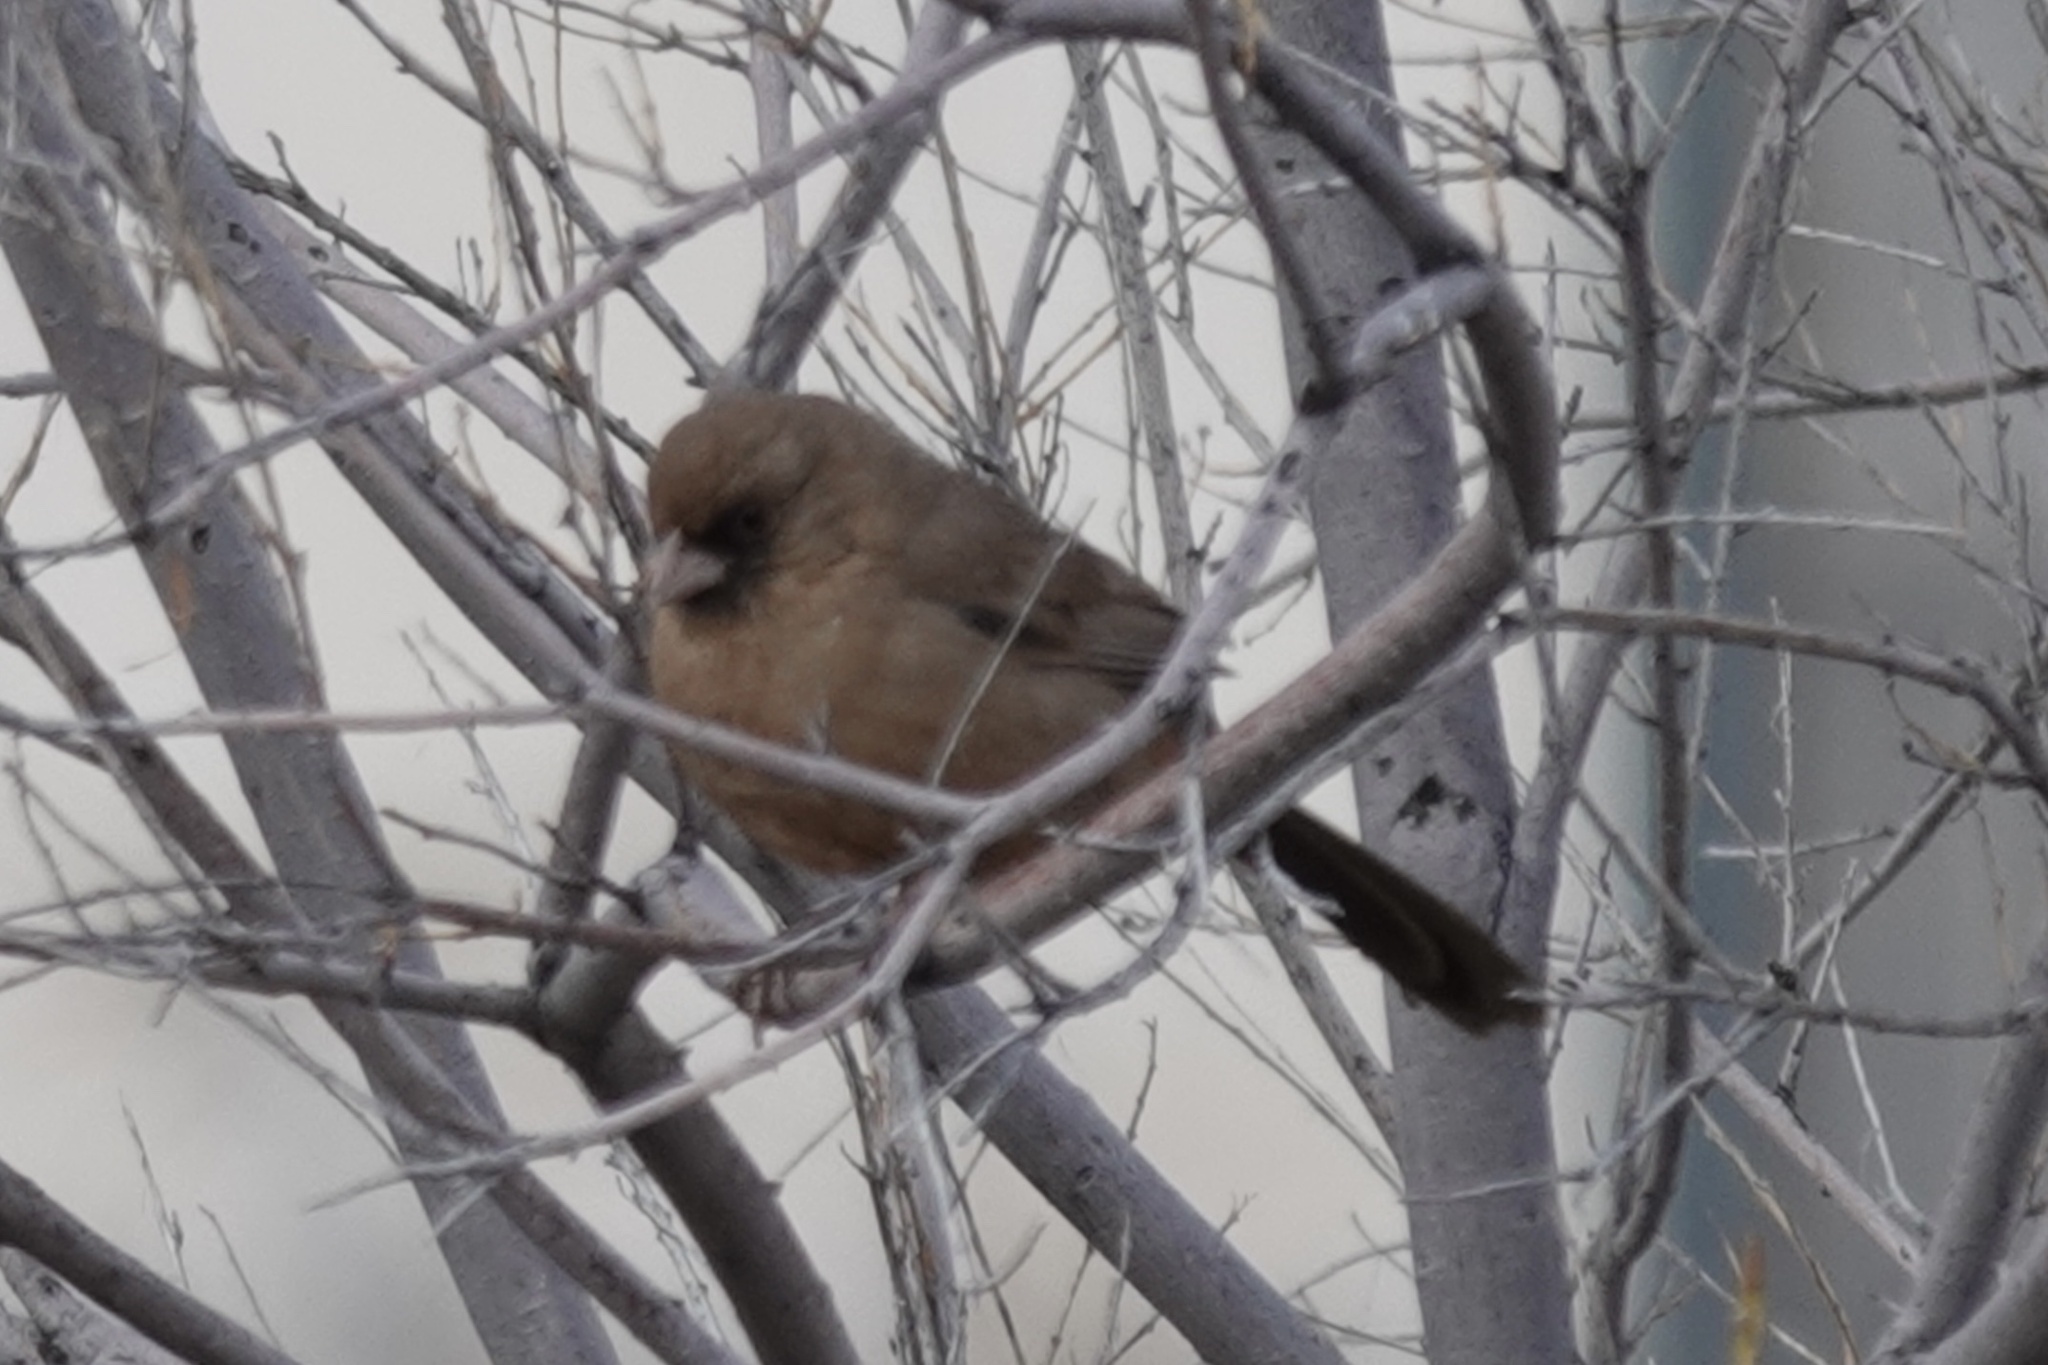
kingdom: Animalia
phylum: Chordata
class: Aves
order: Passeriformes
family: Passerellidae
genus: Melozone
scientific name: Melozone aberti
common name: Abert's towhee
